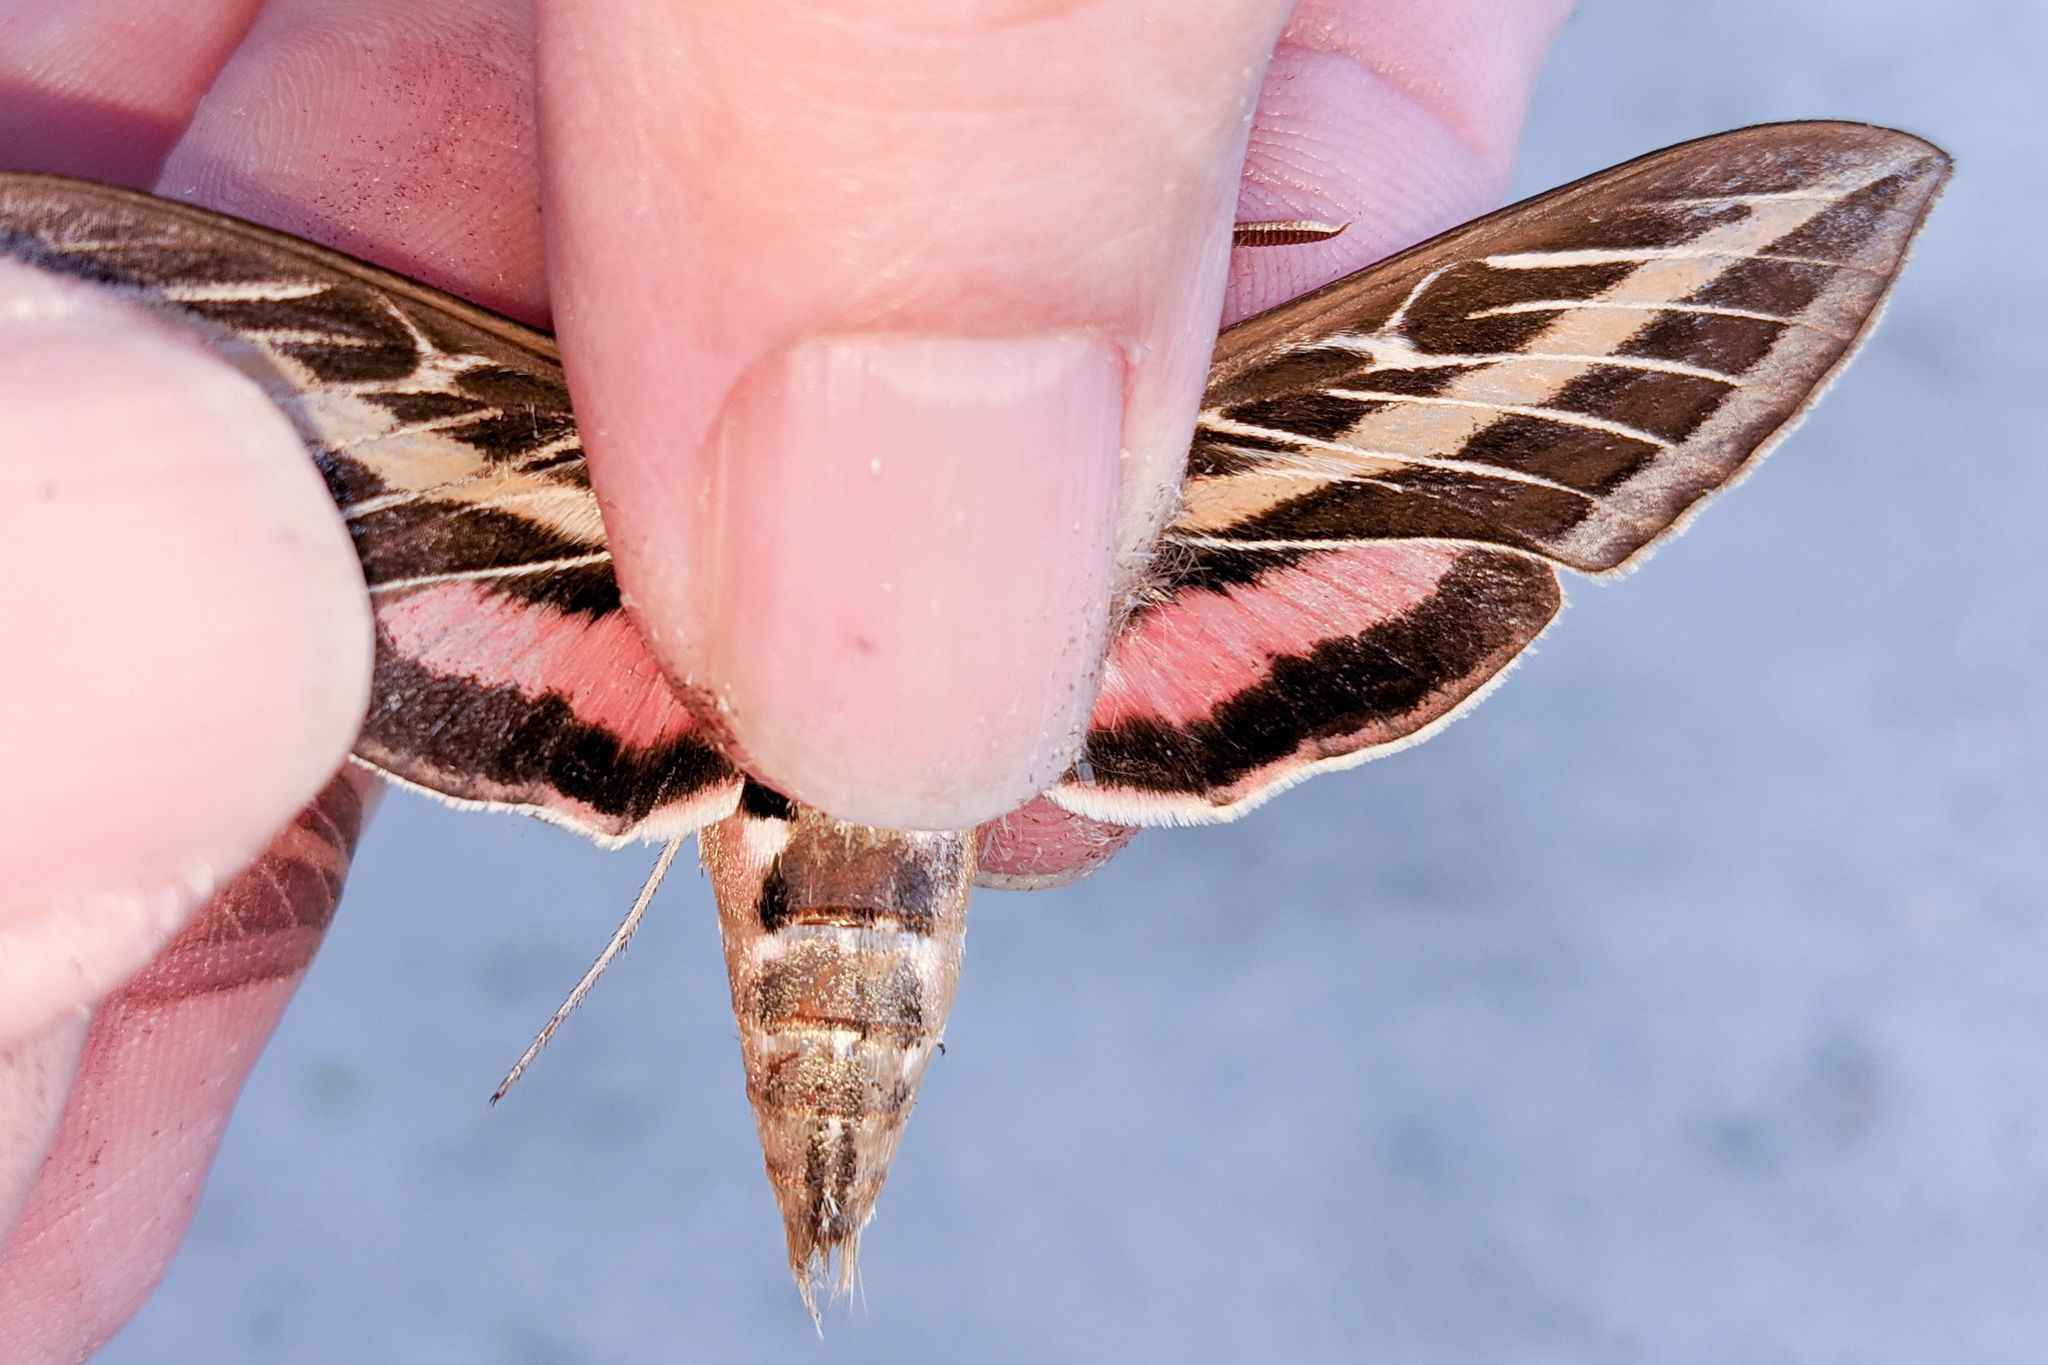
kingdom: Animalia
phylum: Arthropoda
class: Insecta
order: Lepidoptera
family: Sphingidae
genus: Hyles
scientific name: Hyles lineata
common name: White-lined sphinx
